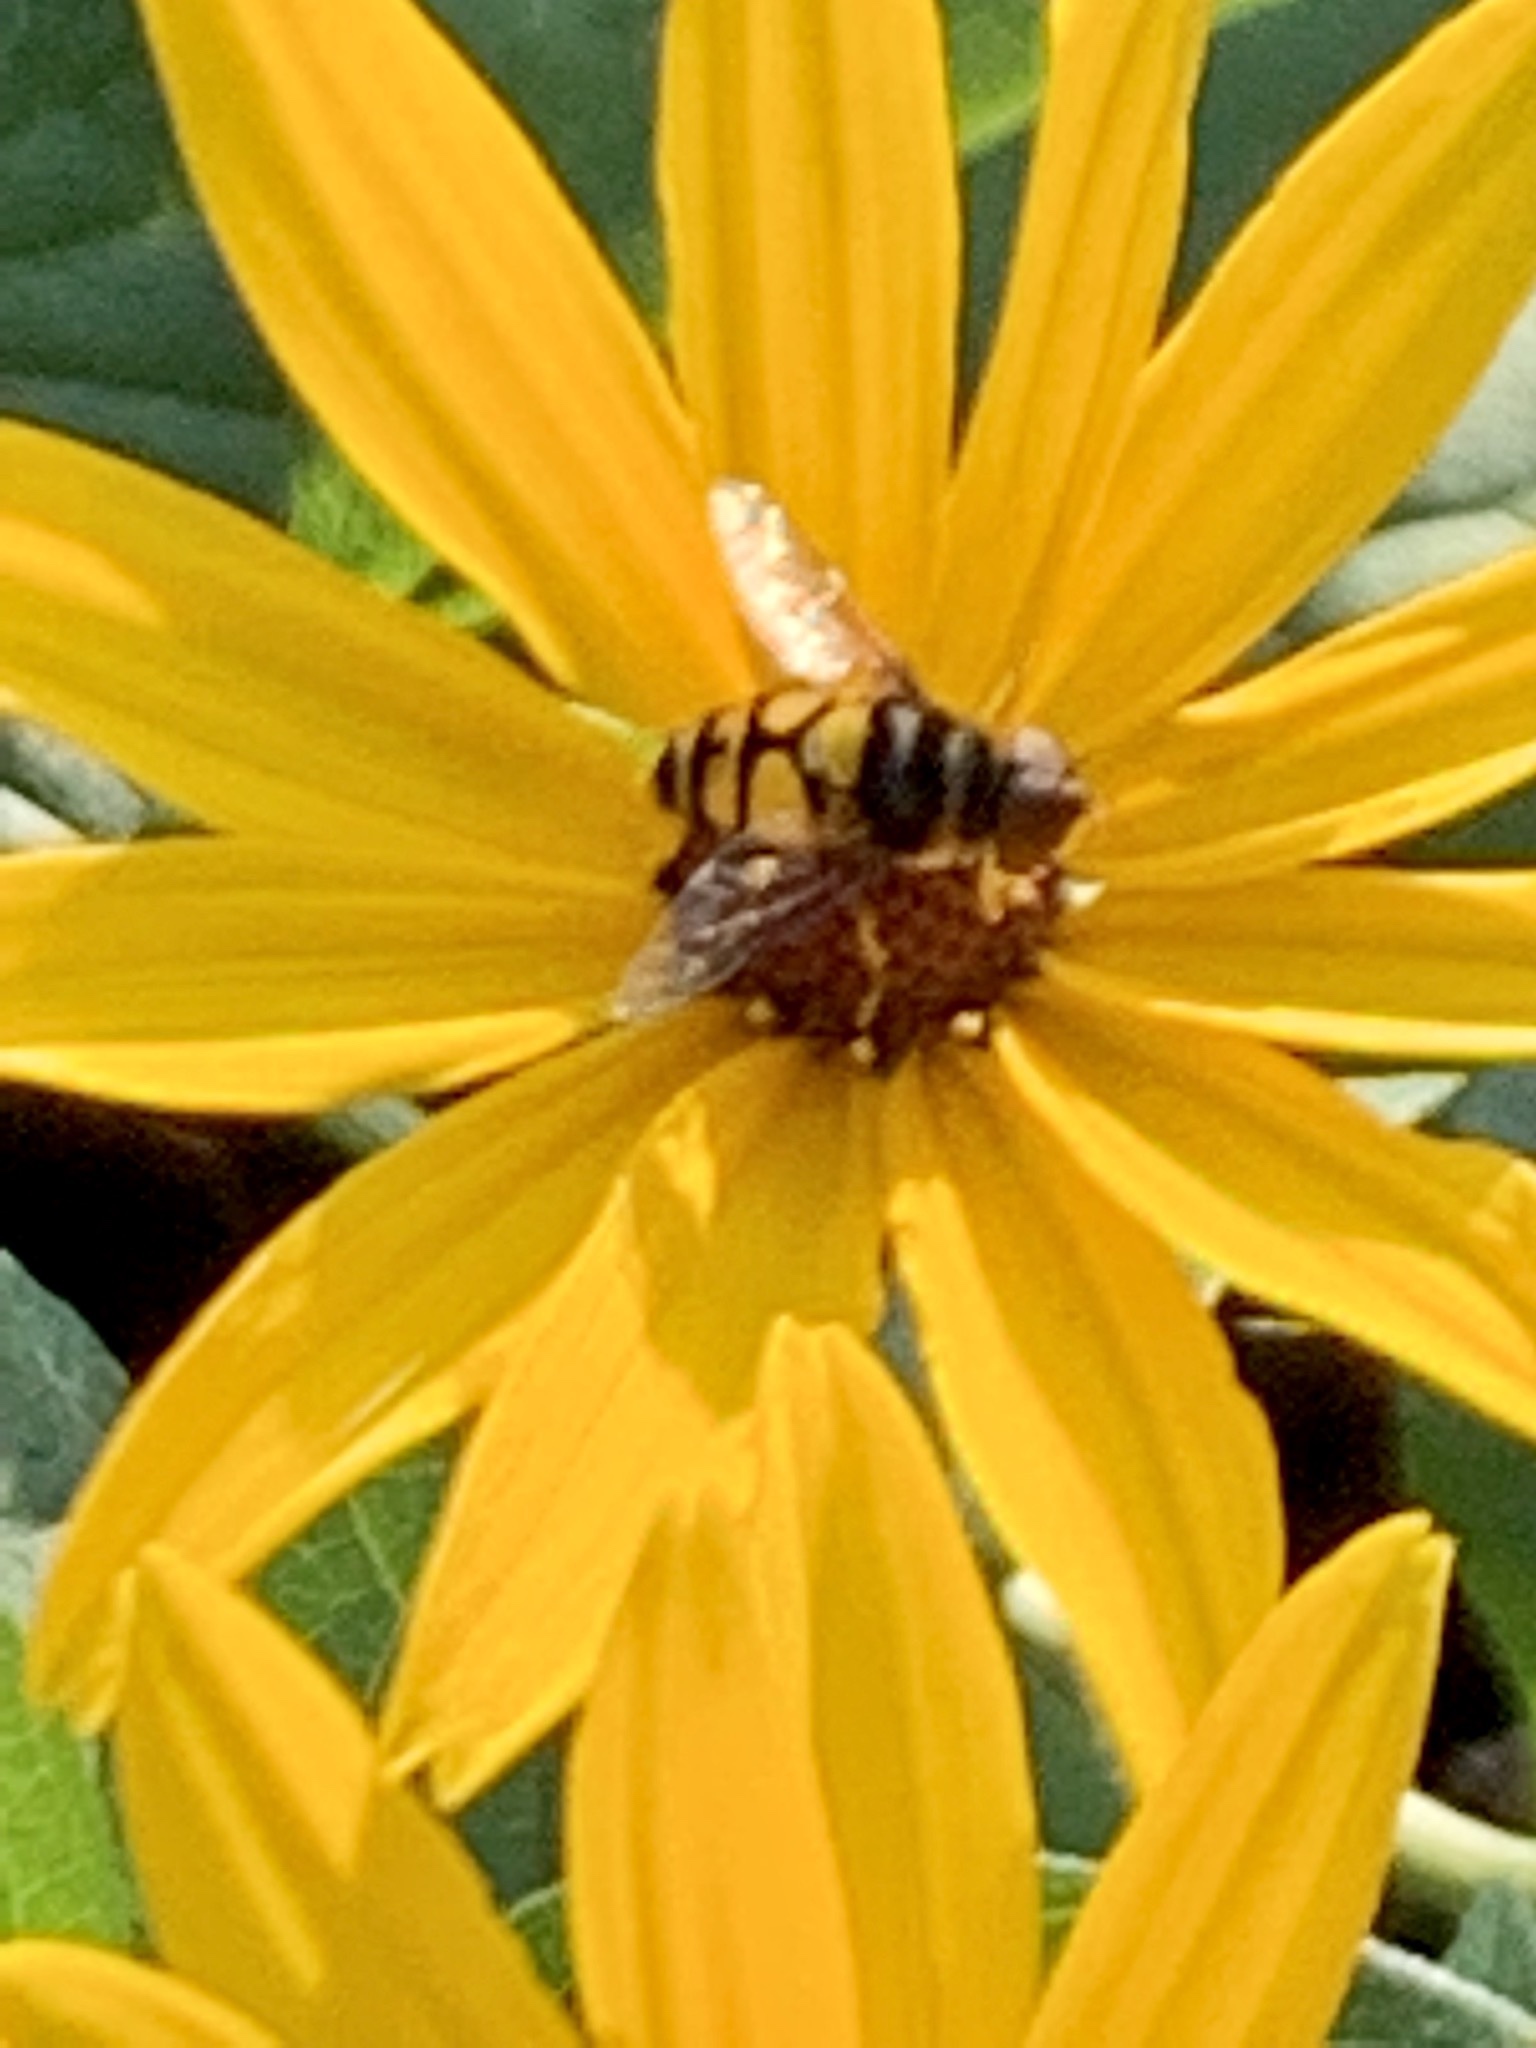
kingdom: Animalia
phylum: Arthropoda
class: Insecta
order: Diptera
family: Syrphidae
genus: Eristalis
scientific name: Eristalis transversa
